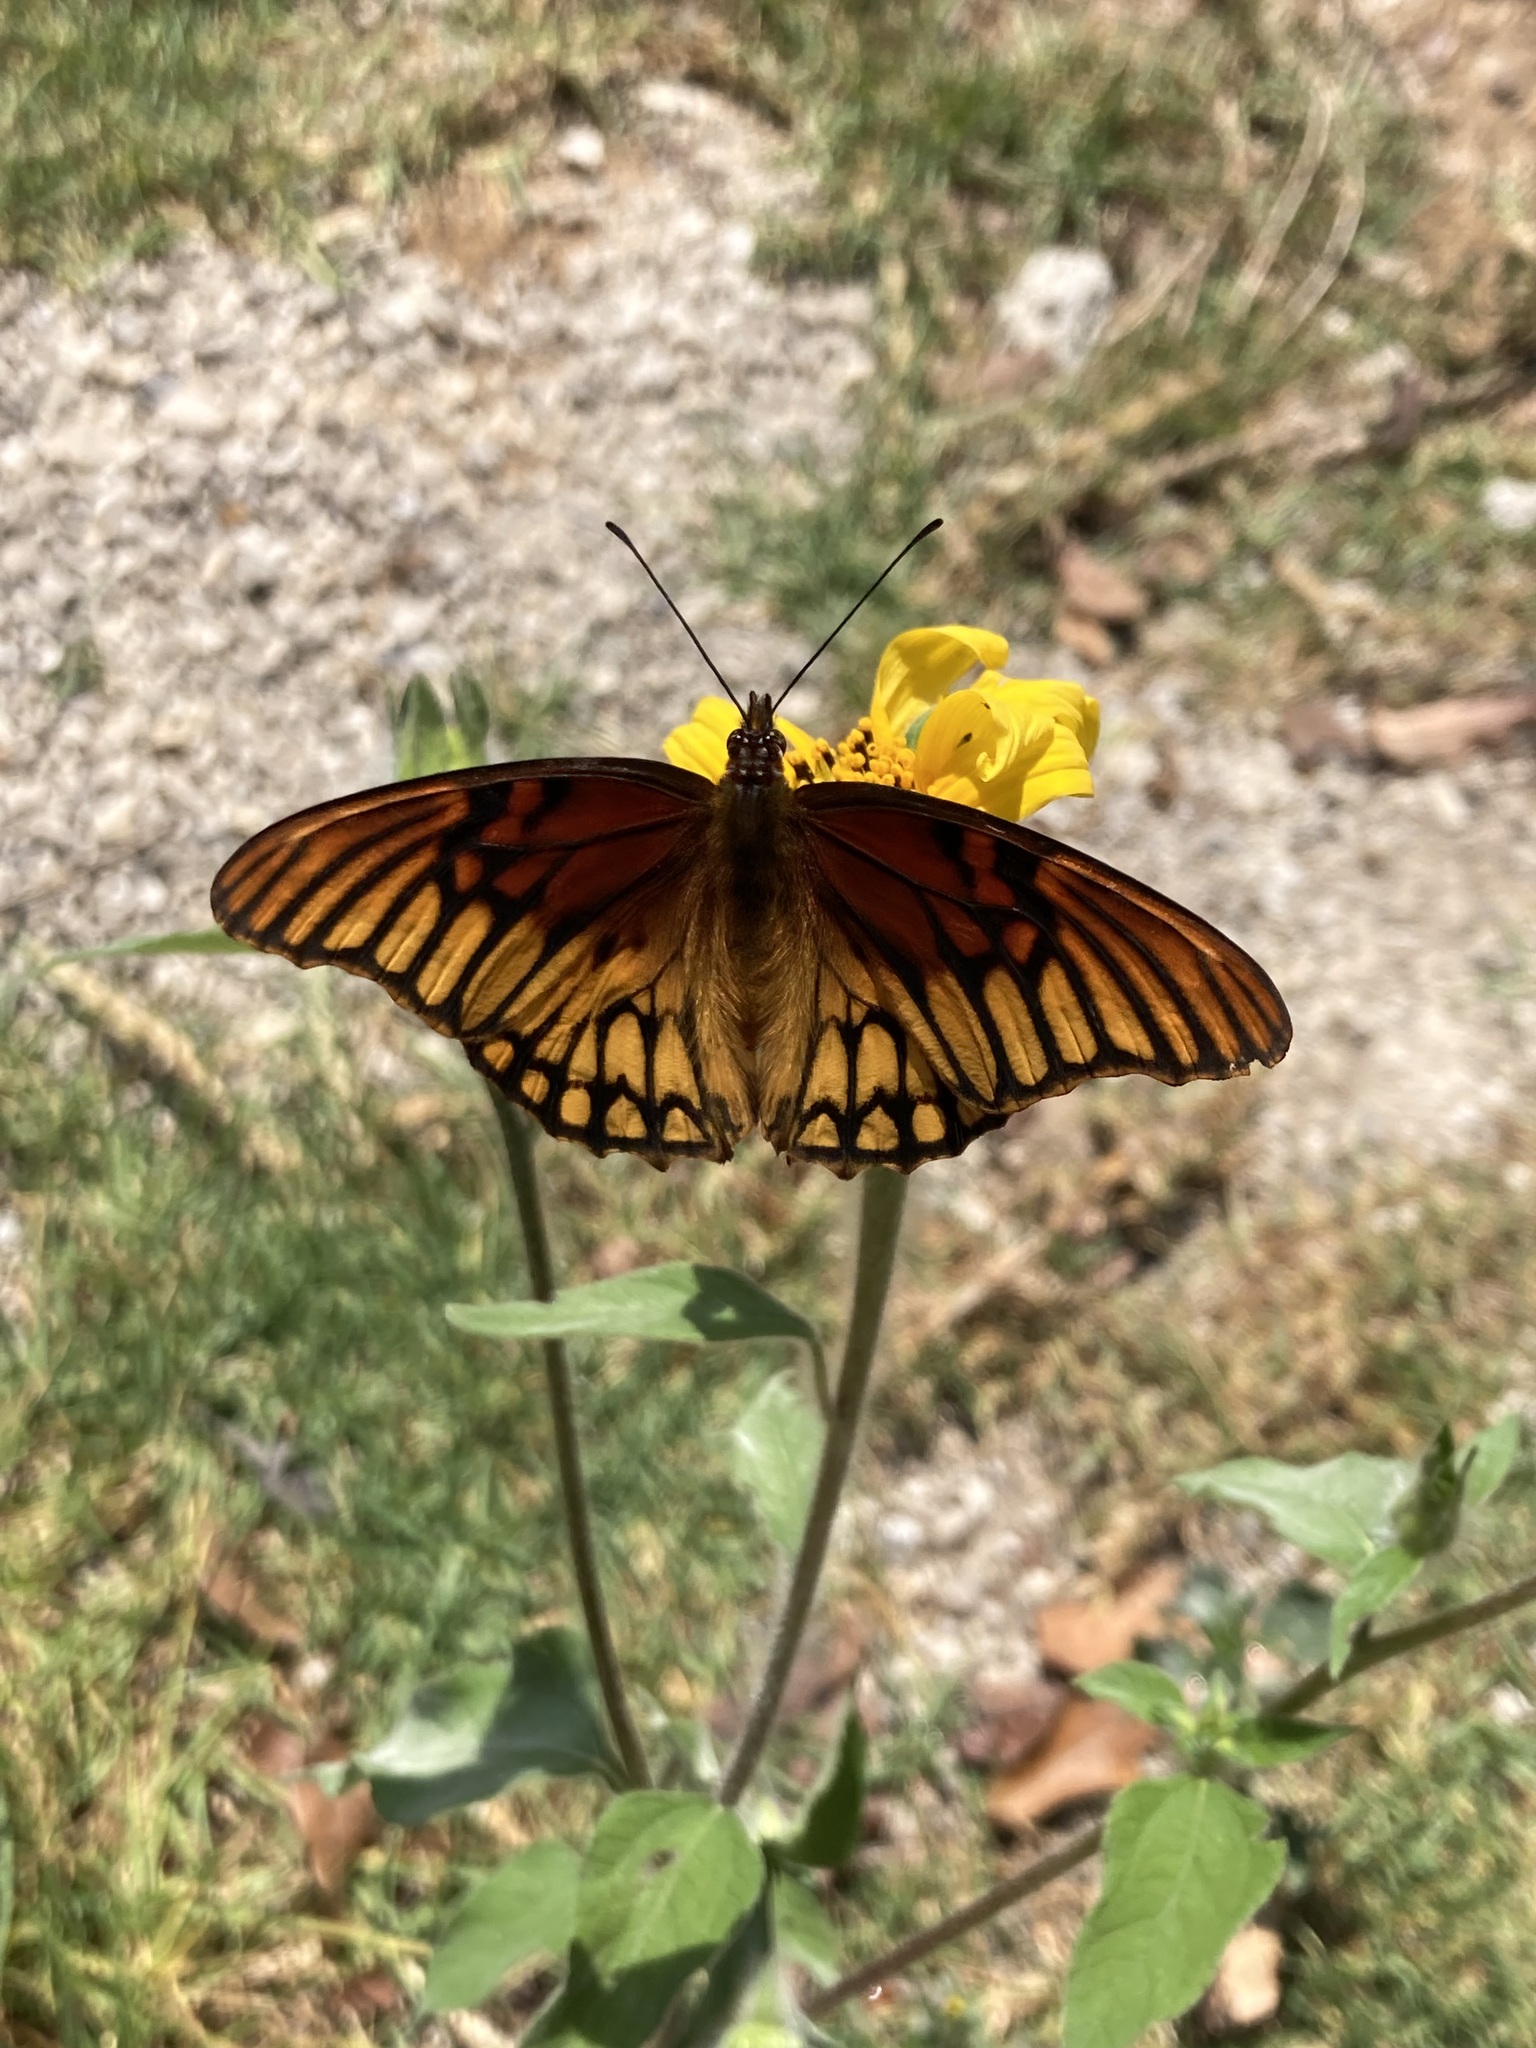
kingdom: Animalia
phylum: Arthropoda
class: Insecta
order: Lepidoptera
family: Nymphalidae
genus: Dione
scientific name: Dione moneta
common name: Mexican silverspot
